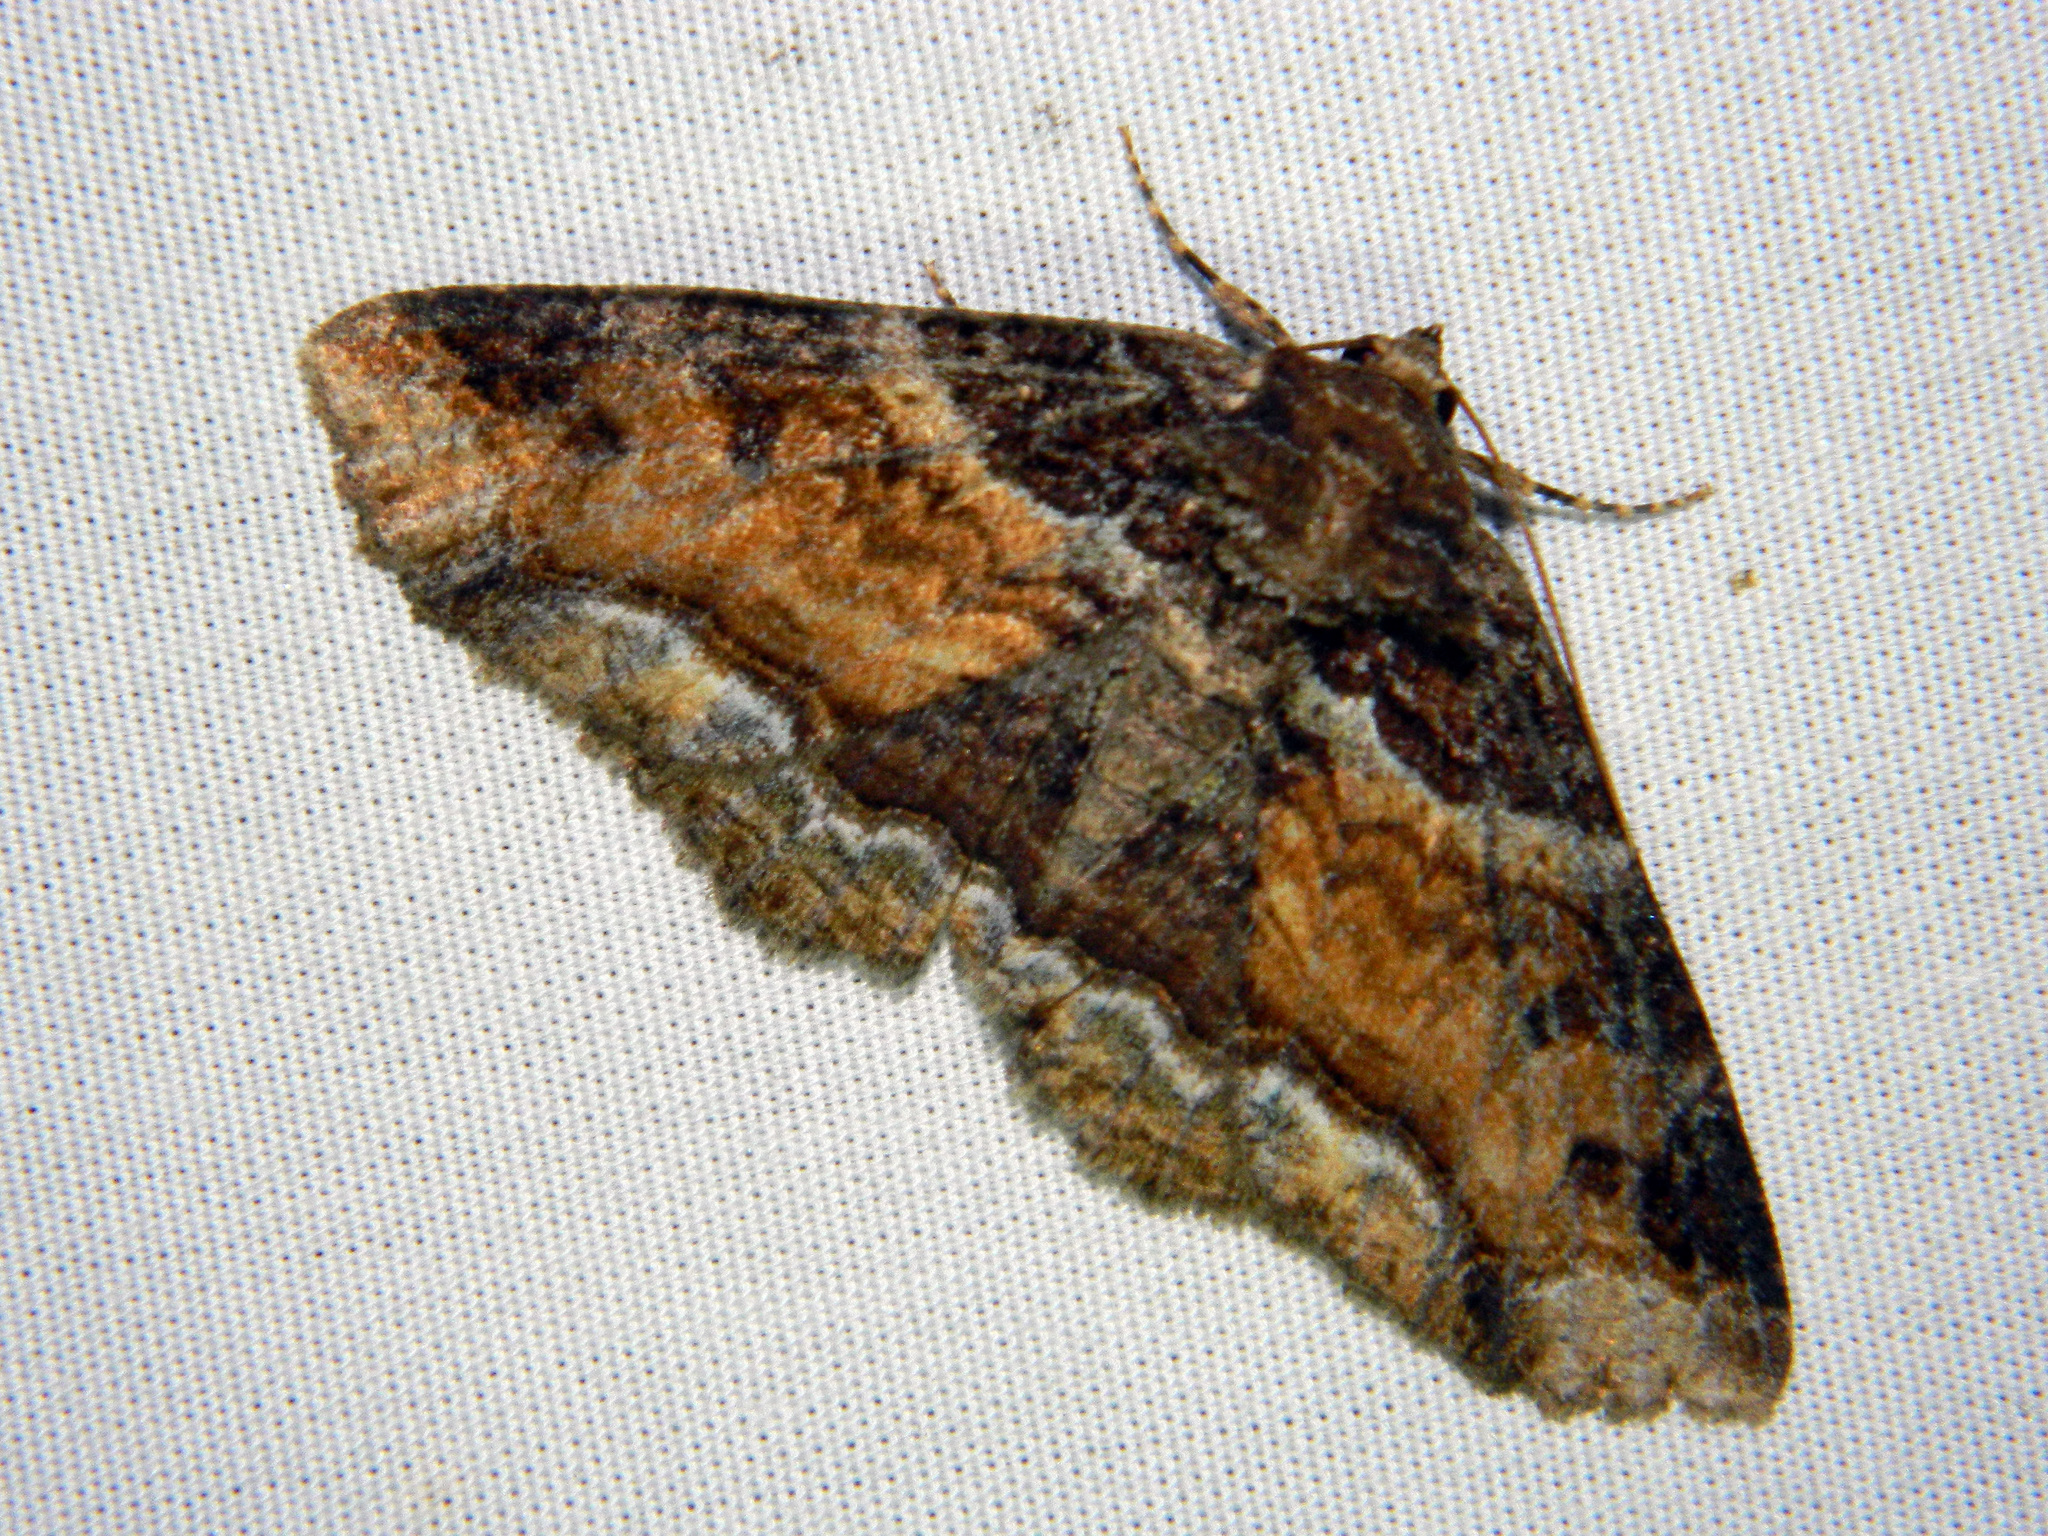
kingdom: Animalia
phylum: Arthropoda
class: Insecta
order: Lepidoptera
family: Erebidae
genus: Zale
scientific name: Zale minerea
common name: Colorful zale moth
